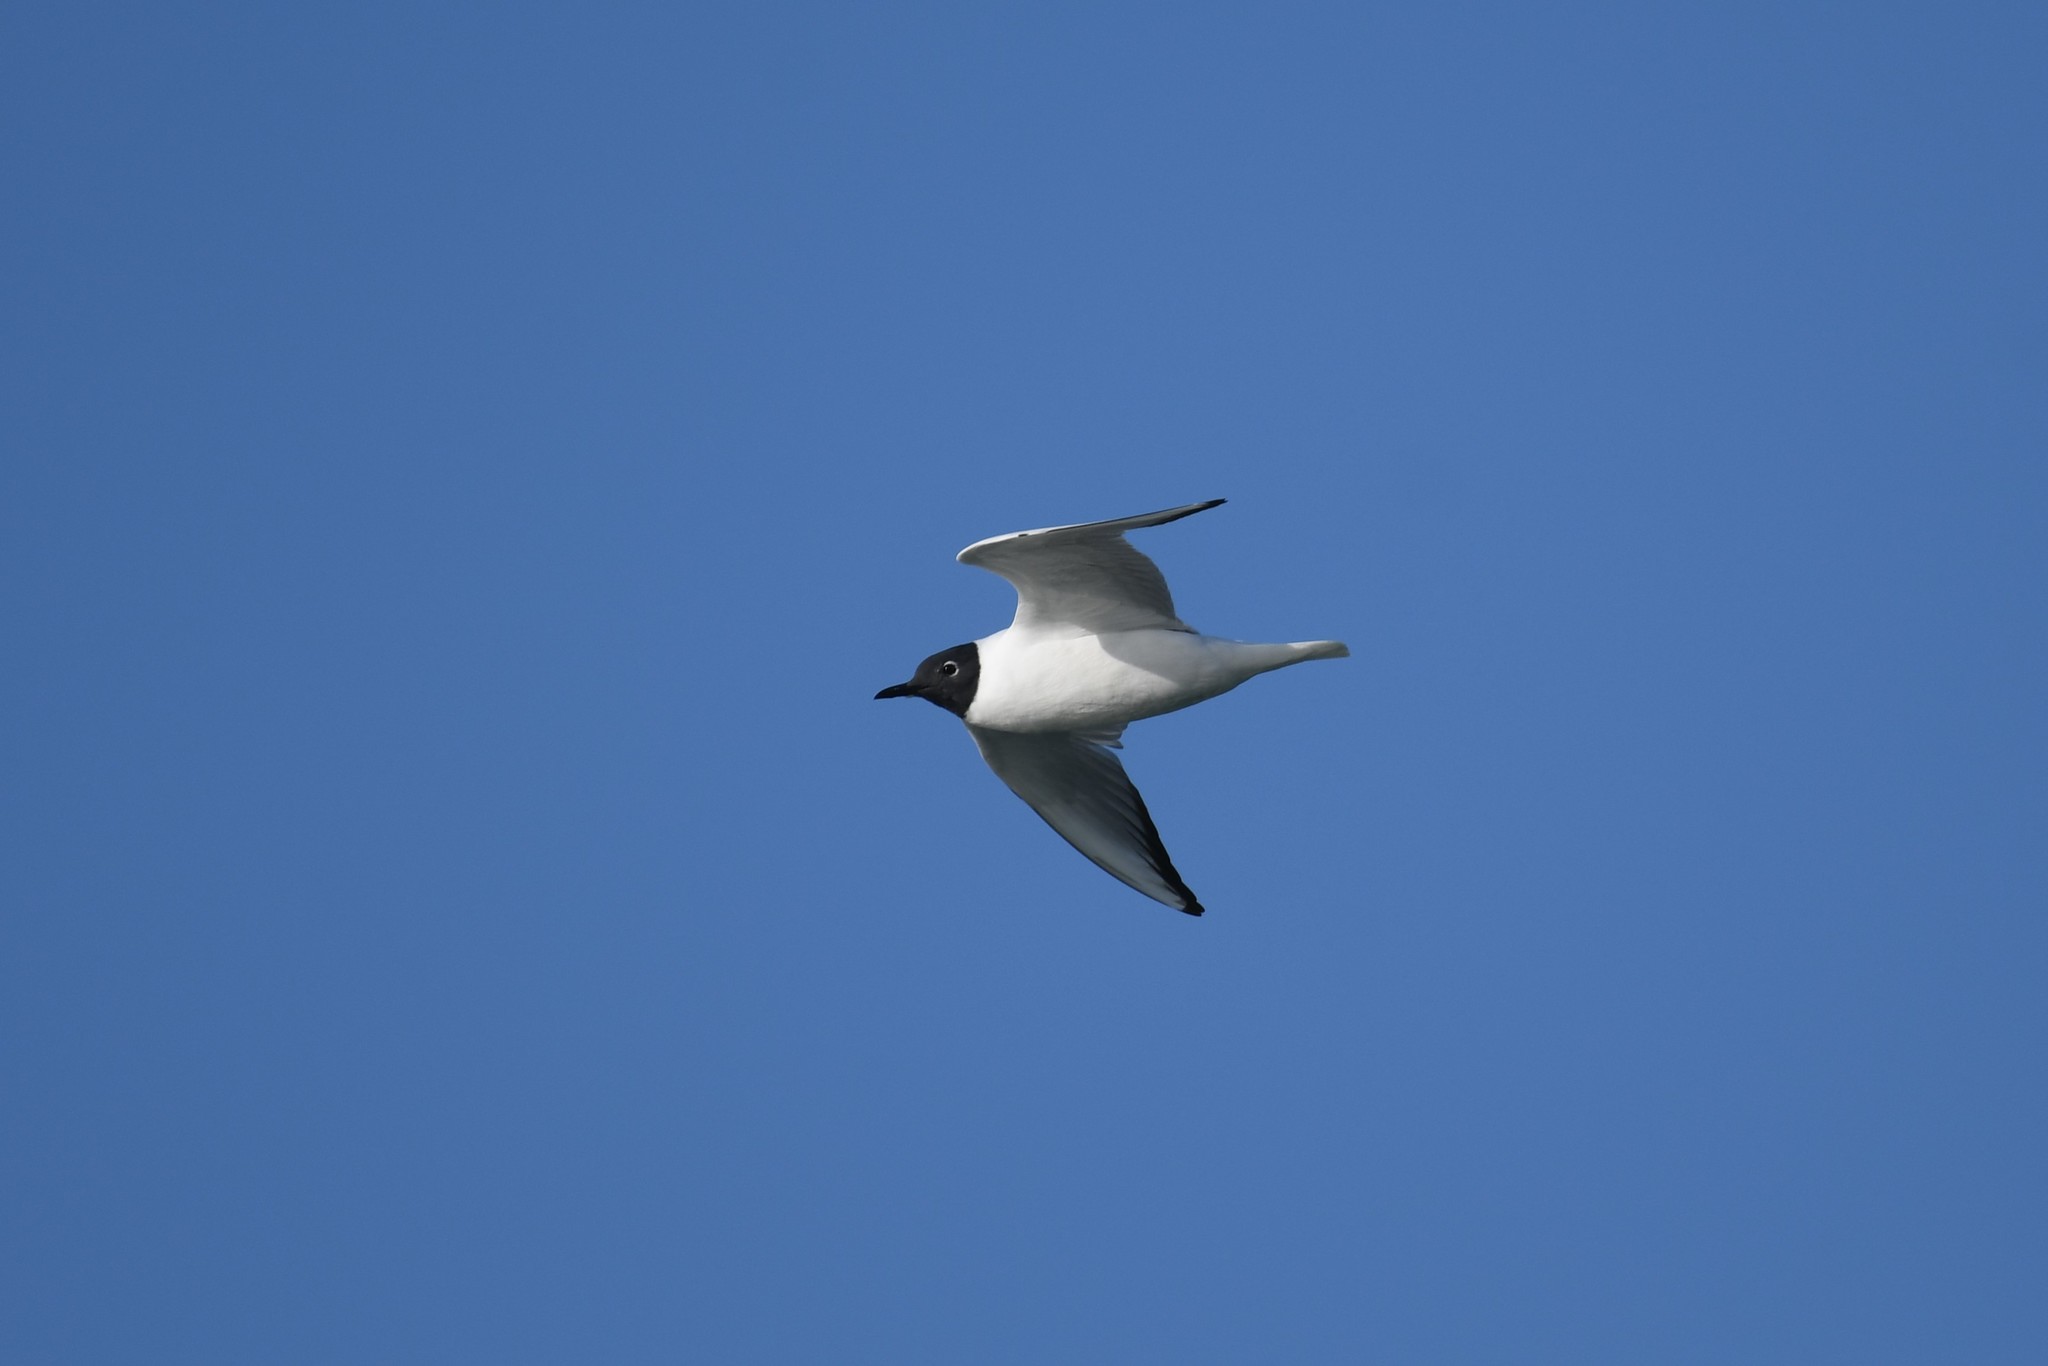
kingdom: Animalia
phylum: Chordata
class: Aves
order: Charadriiformes
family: Laridae
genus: Chroicocephalus
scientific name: Chroicocephalus philadelphia
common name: Bonaparte's gull
